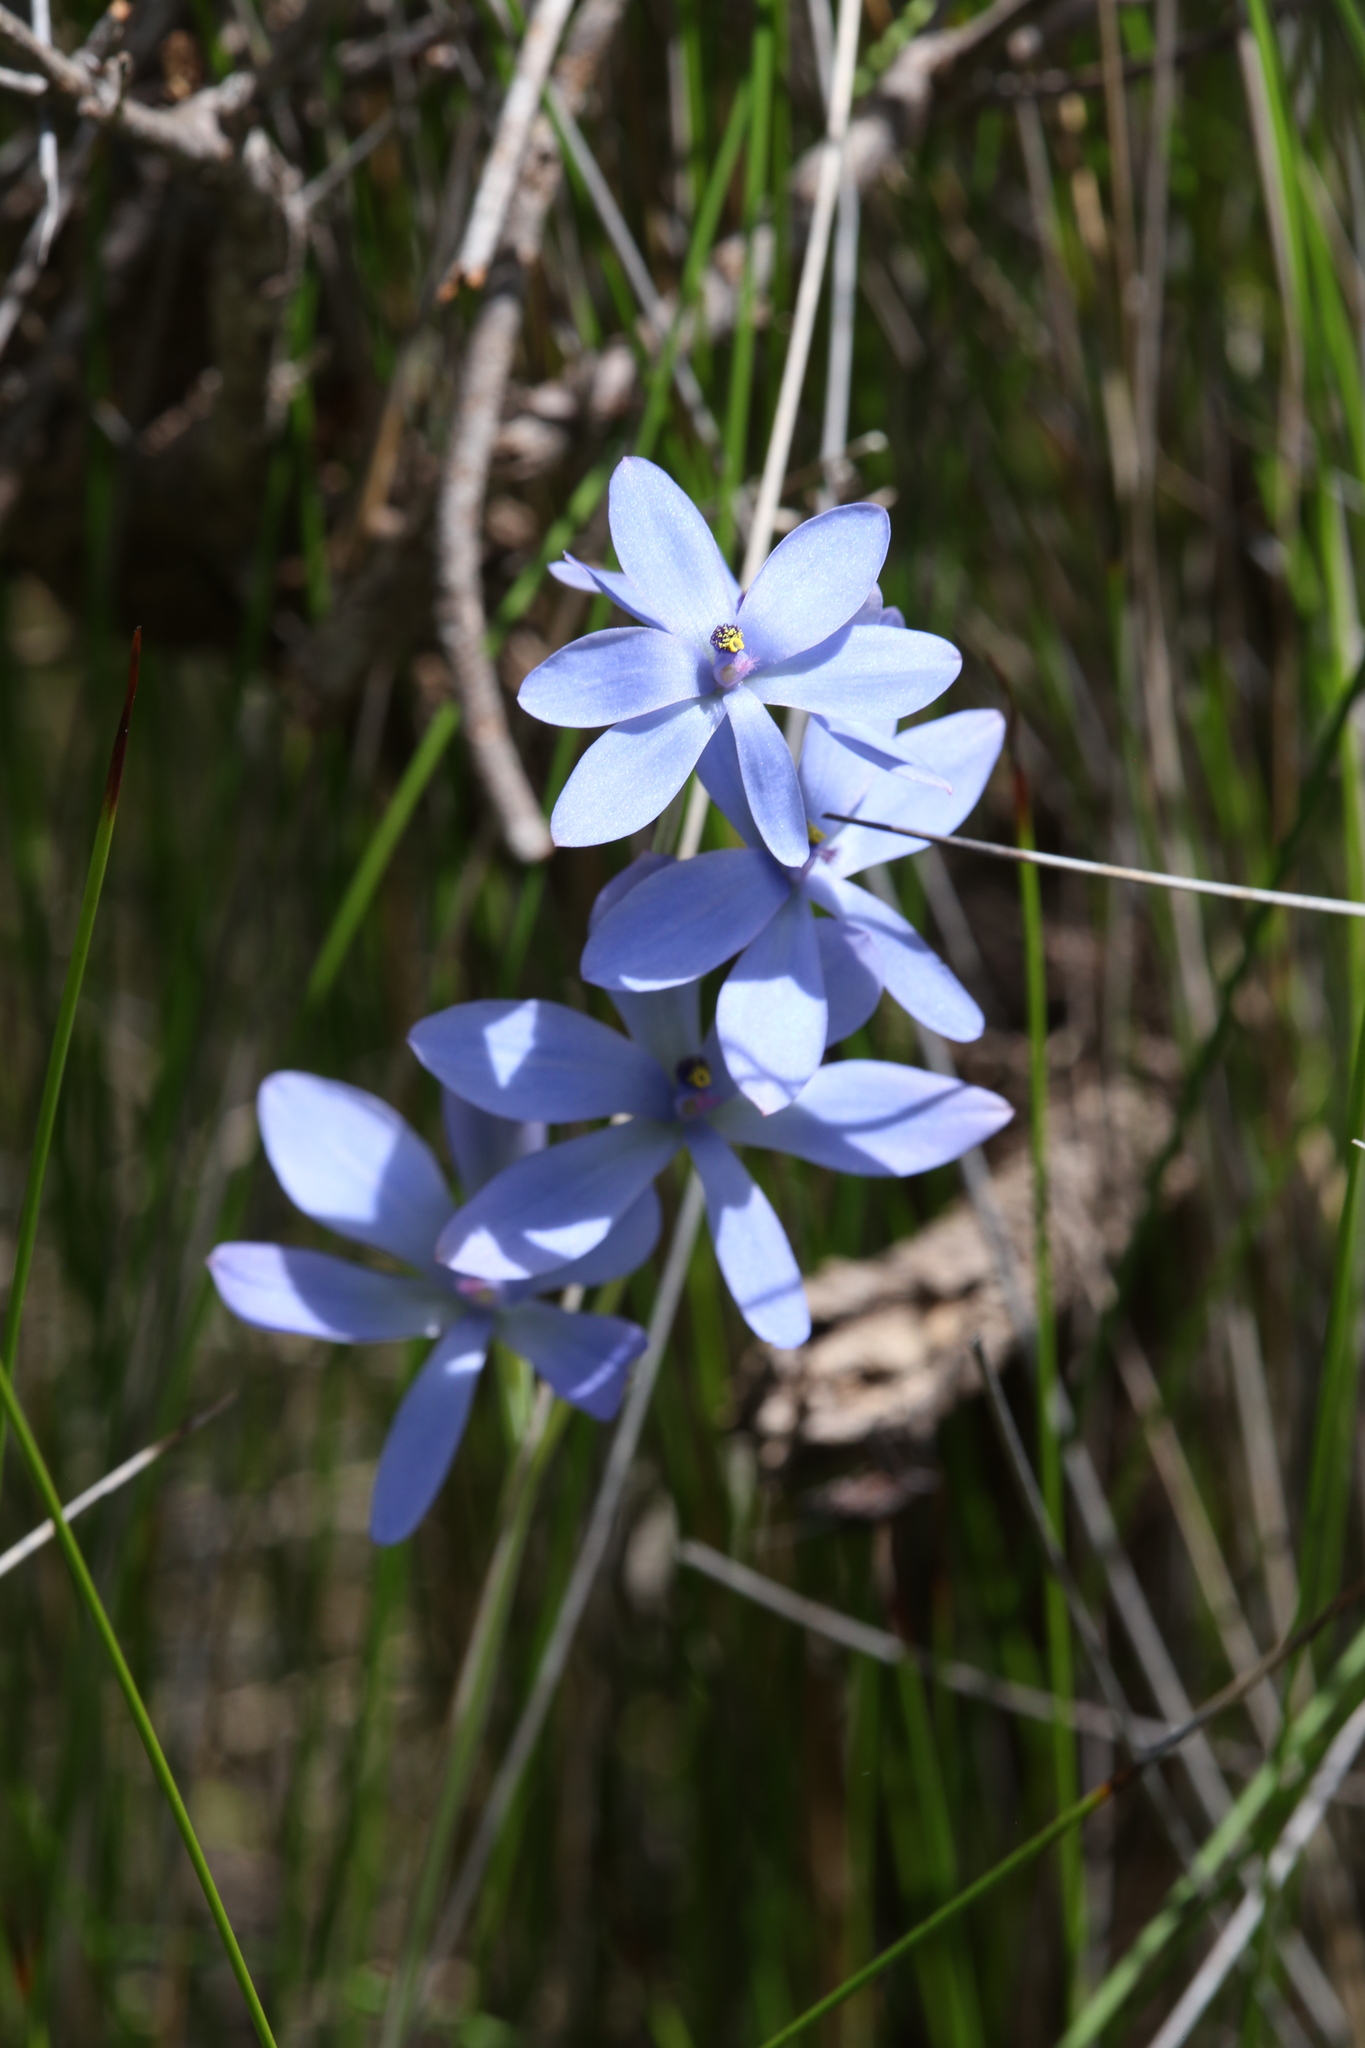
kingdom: Plantae
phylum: Tracheophyta
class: Liliopsida
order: Asparagales
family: Orchidaceae
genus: Thelymitra
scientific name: Thelymitra crinita
